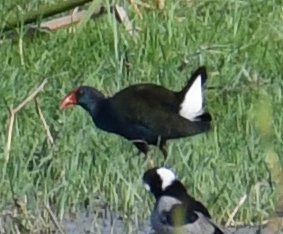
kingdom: Animalia
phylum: Chordata
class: Aves
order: Gruiformes
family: Rallidae
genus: Porphyrio
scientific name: Porphyrio porphyrio
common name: Purple swamphen
